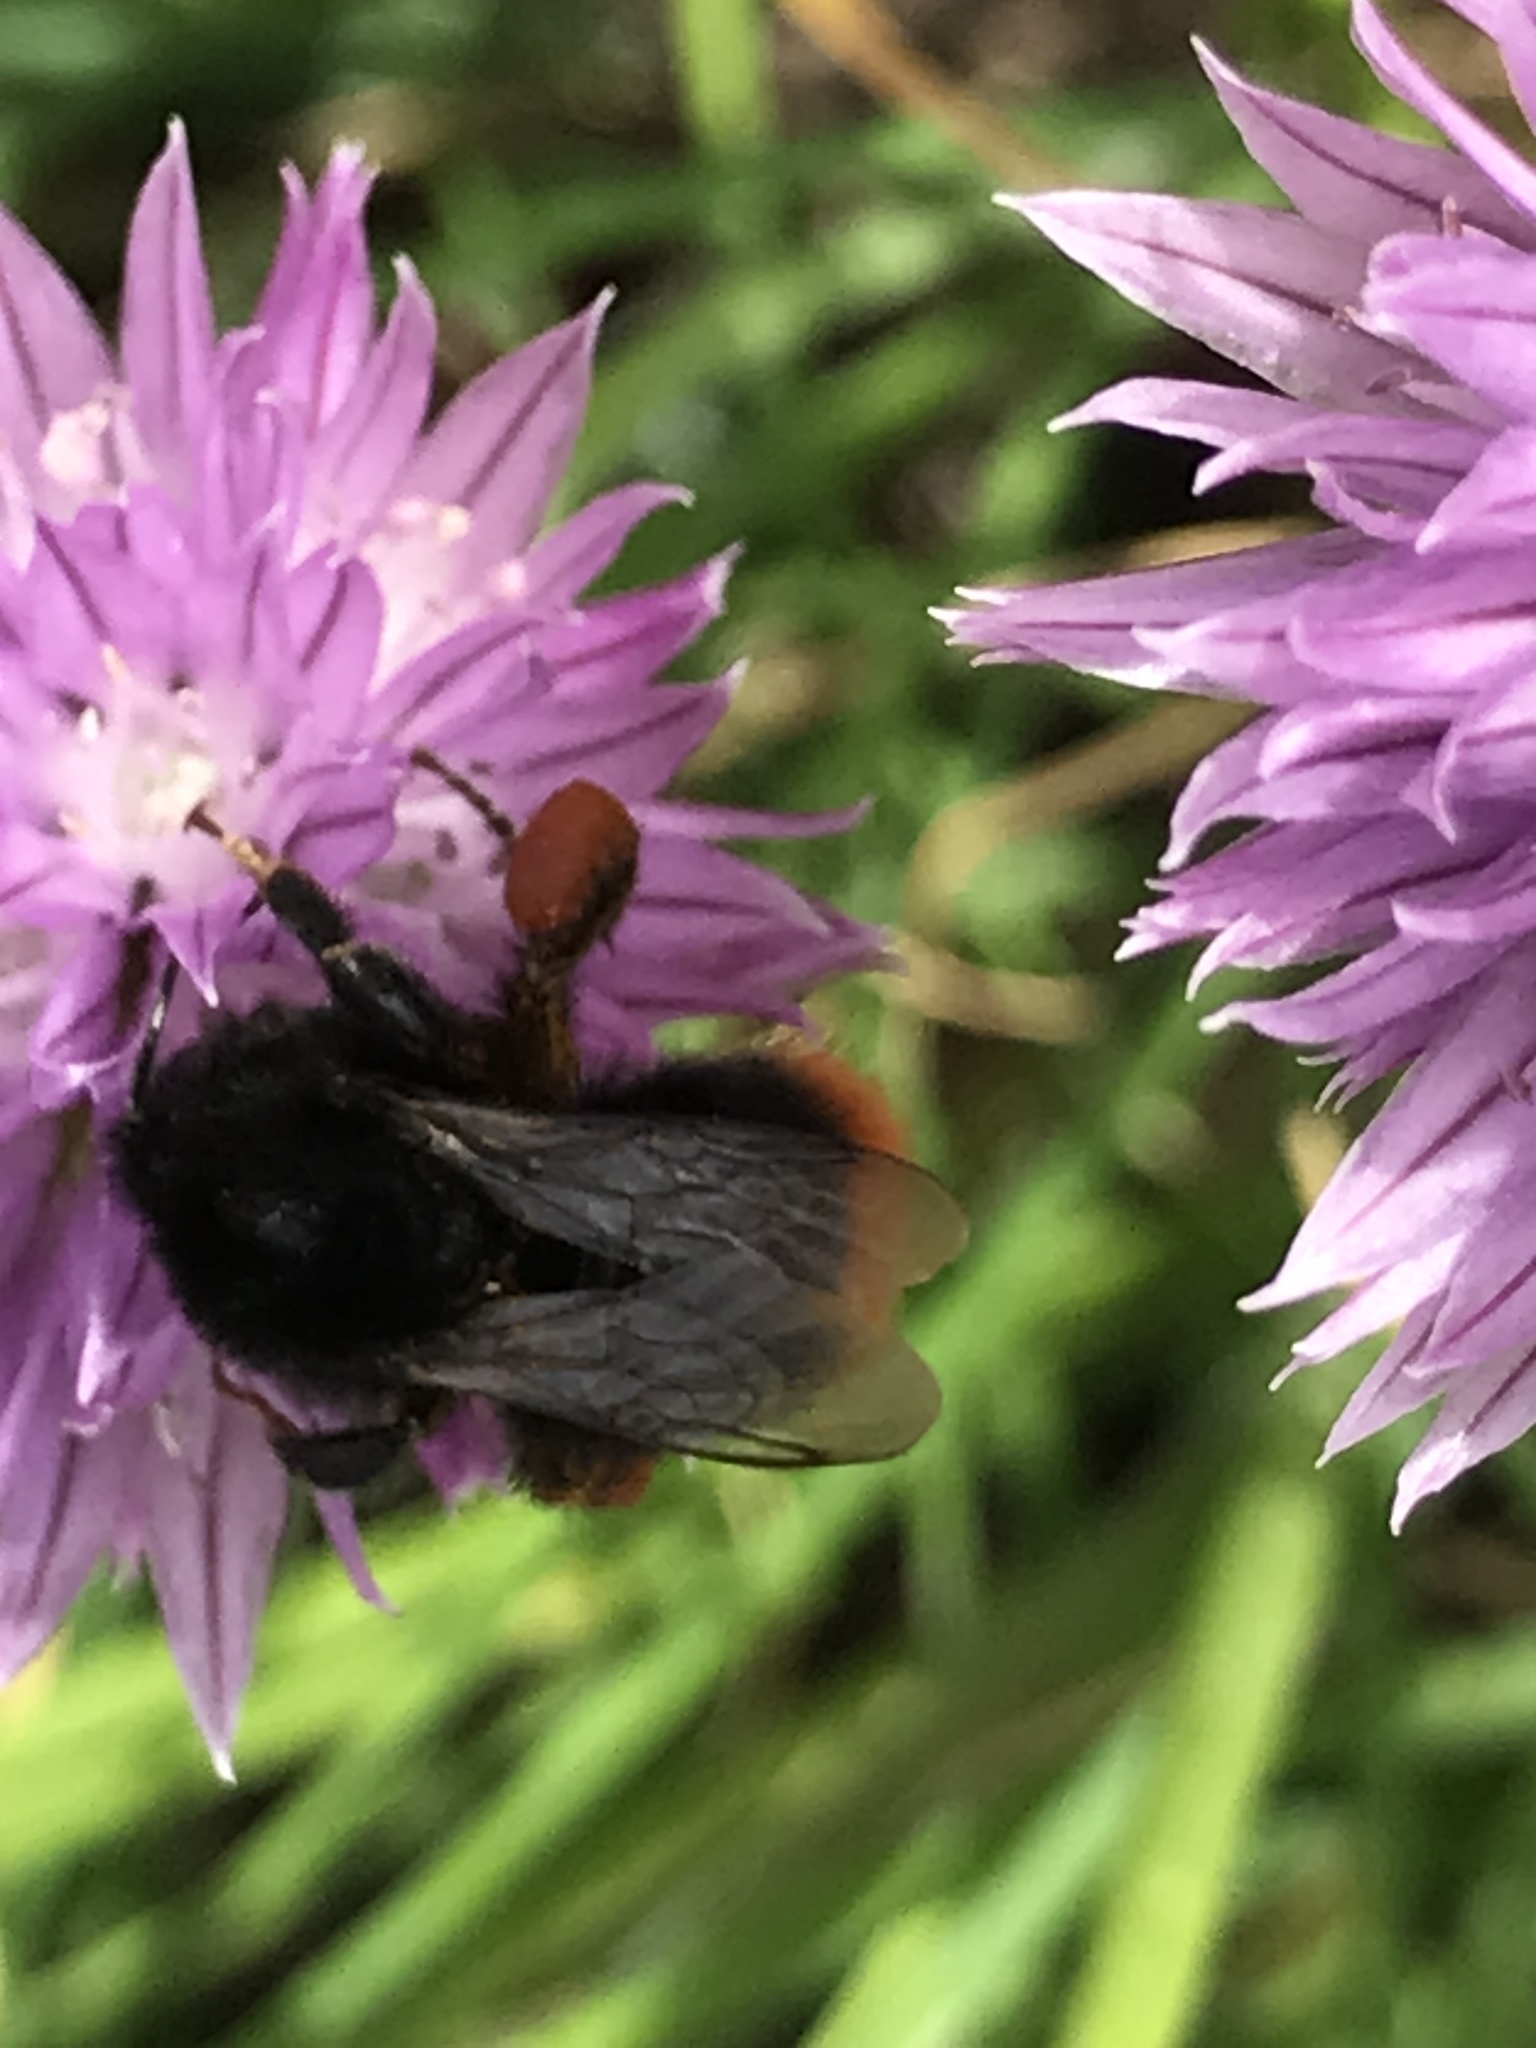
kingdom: Animalia
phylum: Arthropoda
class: Insecta
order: Hymenoptera
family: Apidae
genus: Bombus
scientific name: Bombus lapidarius
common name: Large red-tailed humble-bee
